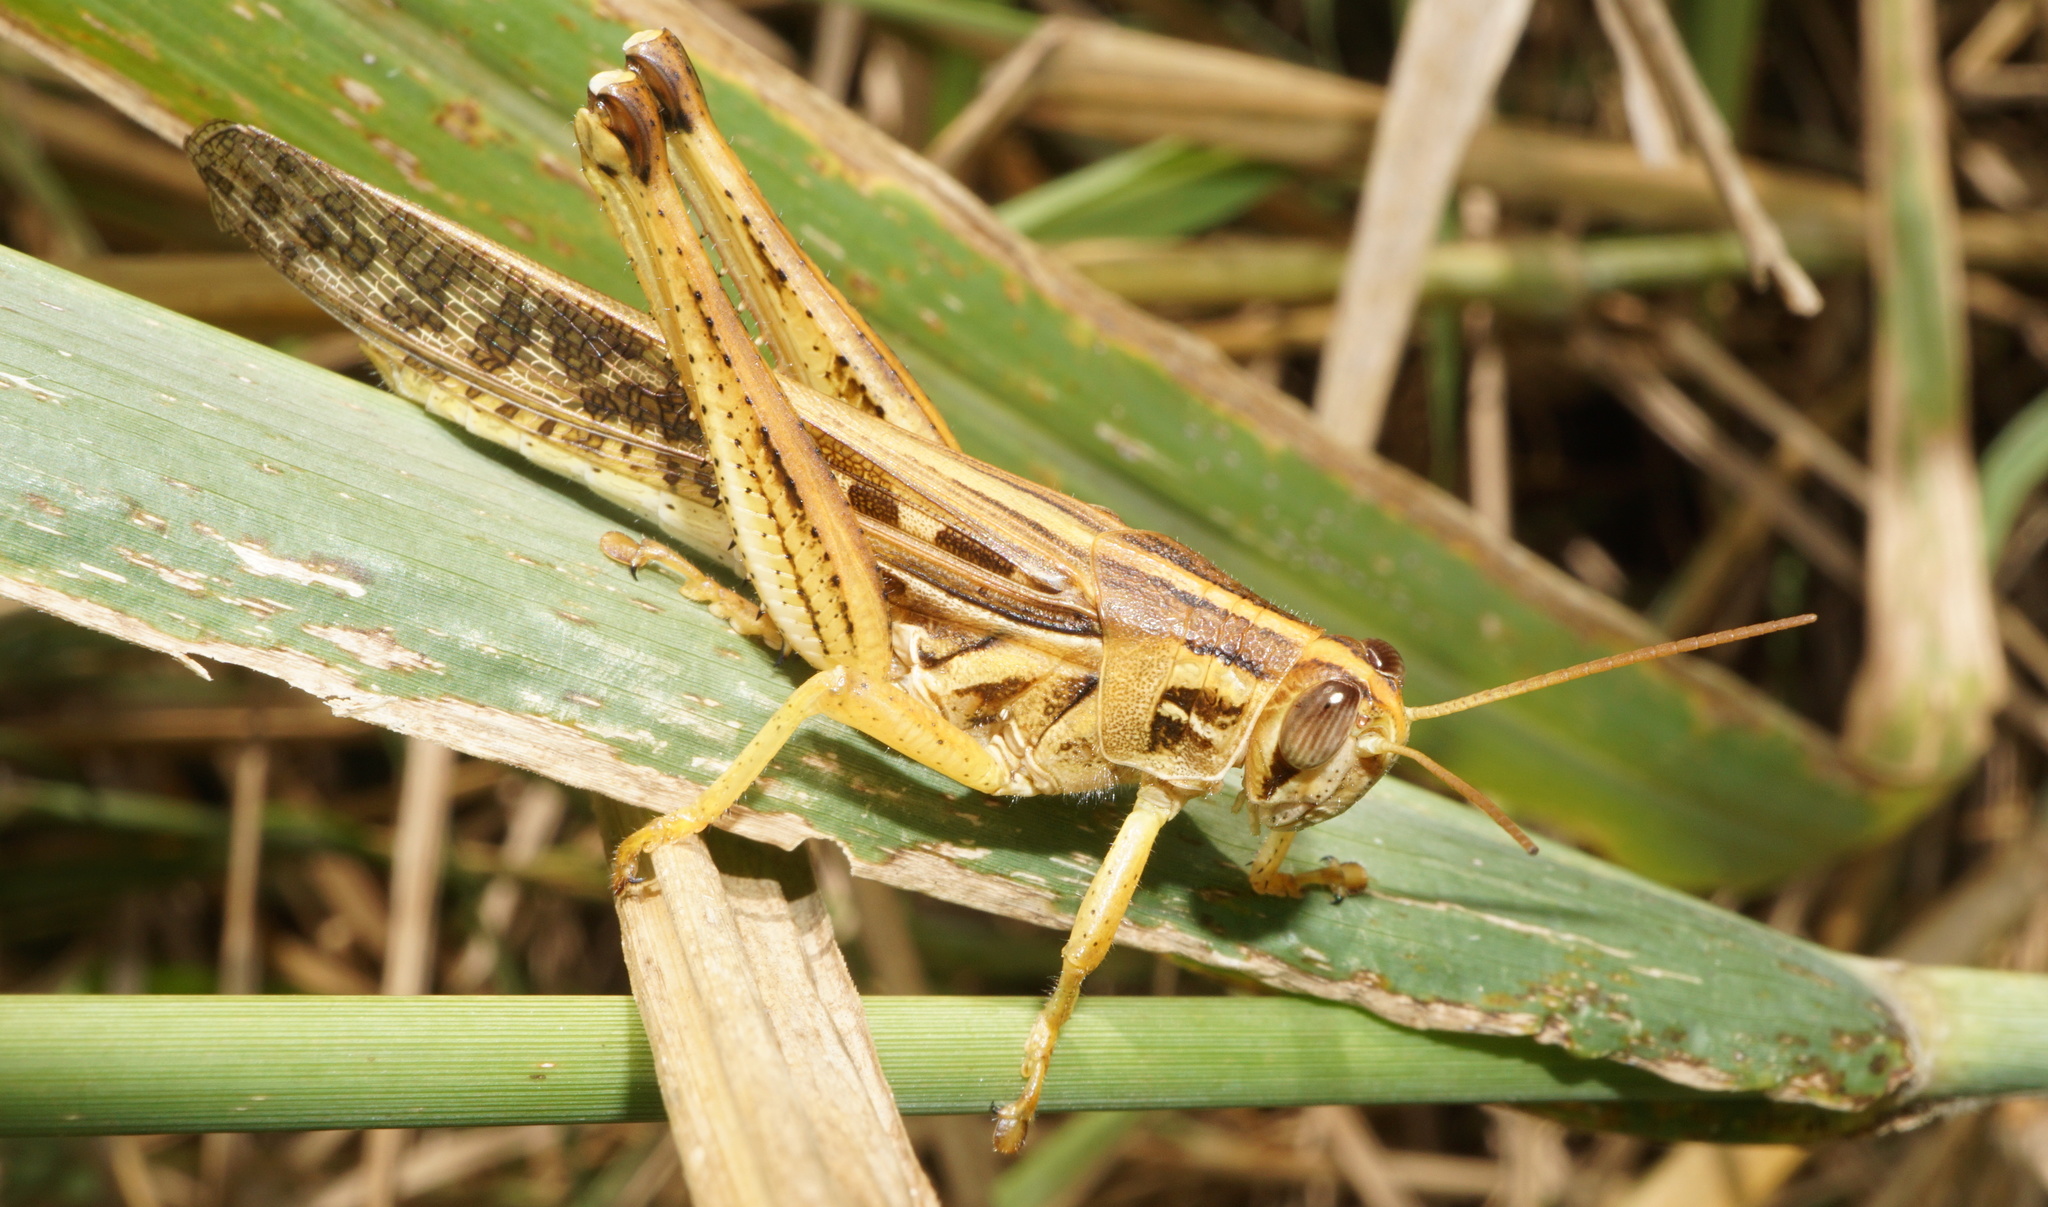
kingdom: Animalia
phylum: Arthropoda
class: Insecta
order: Orthoptera
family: Acrididae
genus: Schistocerca
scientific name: Schistocerca americana
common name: American bird locust
